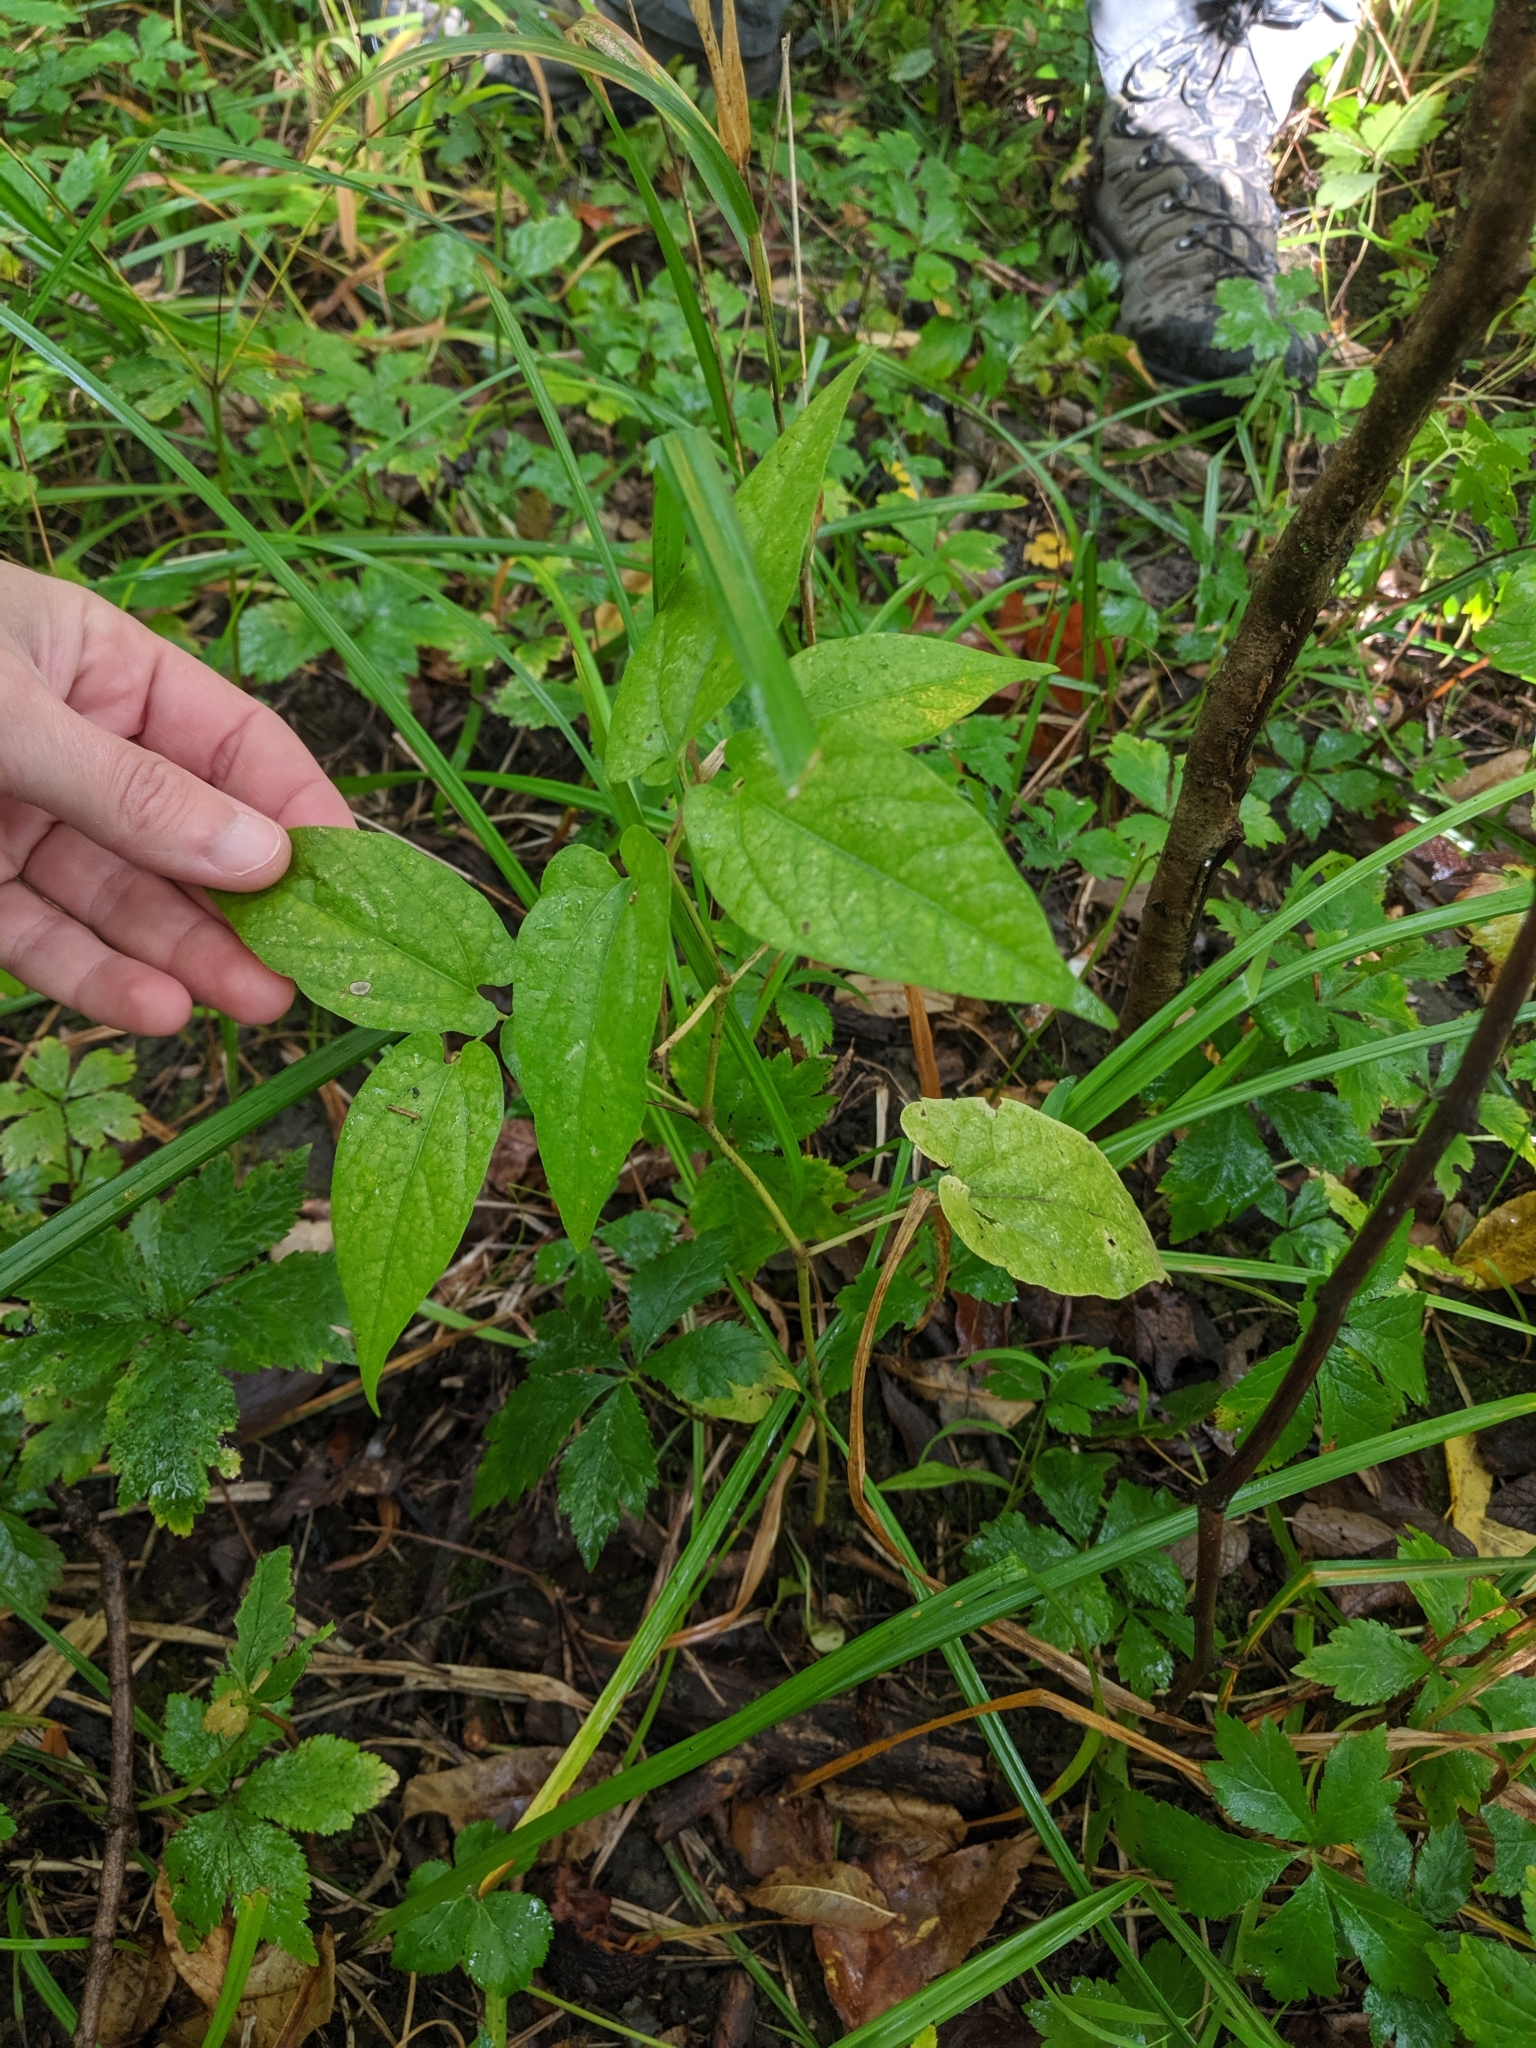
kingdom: Plantae
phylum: Tracheophyta
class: Magnoliopsida
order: Piperales
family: Aristolochiaceae
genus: Endodeca
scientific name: Endodeca serpentaria
